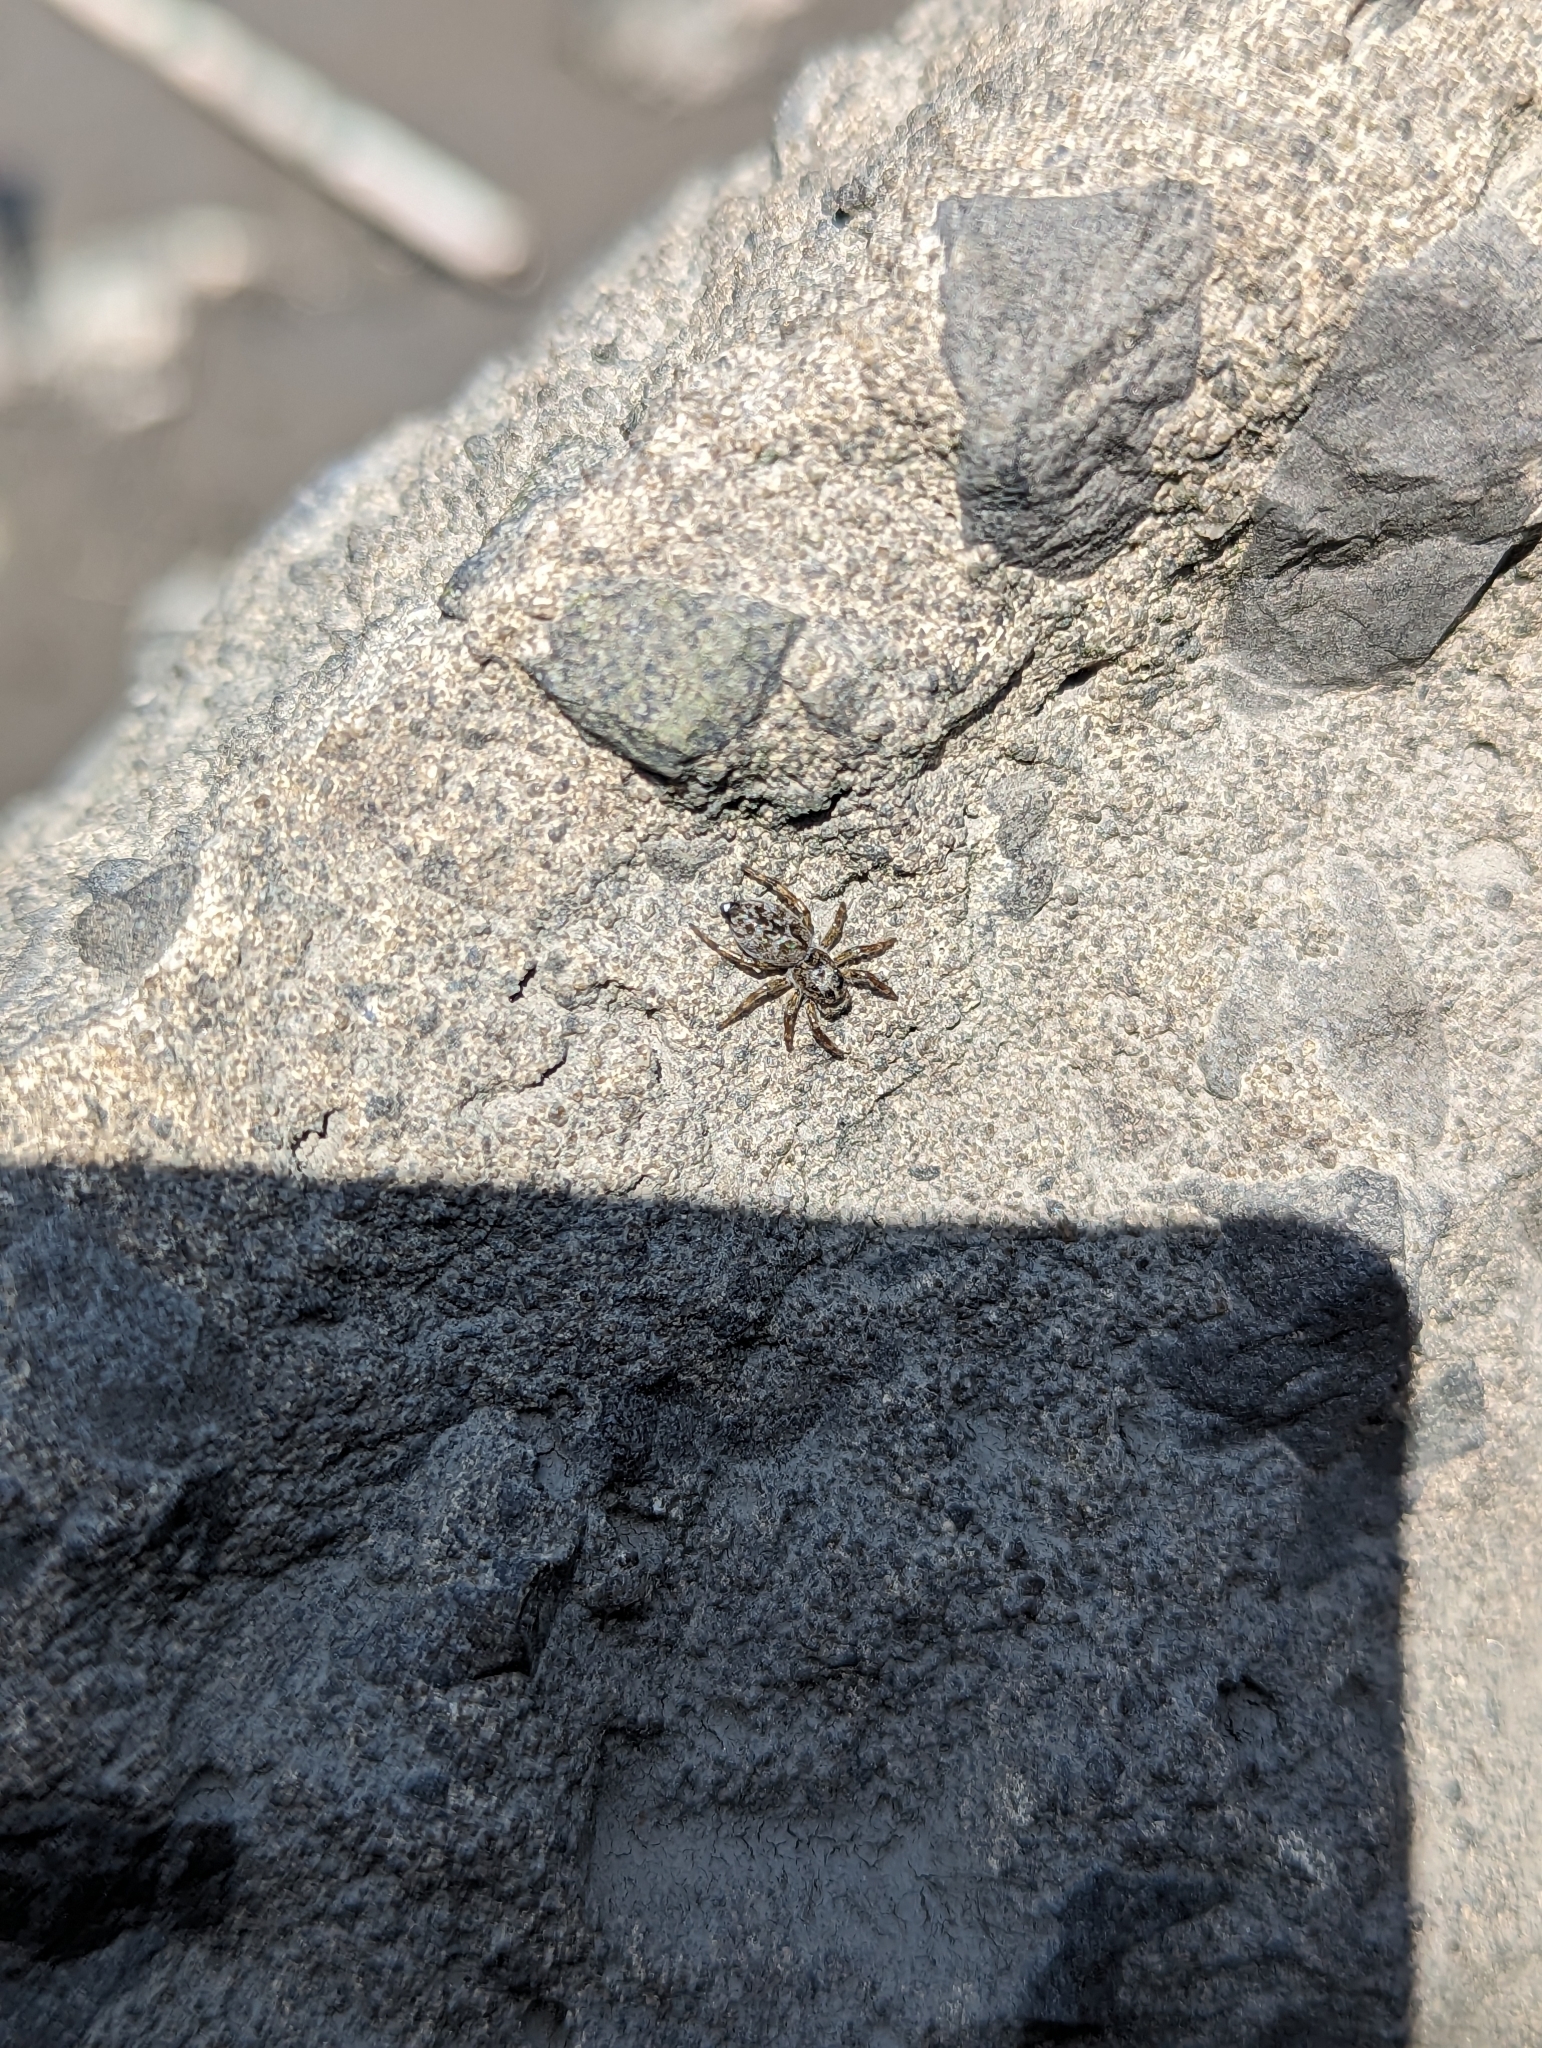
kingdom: Animalia
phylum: Arthropoda
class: Arachnida
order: Araneae
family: Salticidae
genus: Hakka
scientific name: Hakka himeshimensis
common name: Jumping spider
